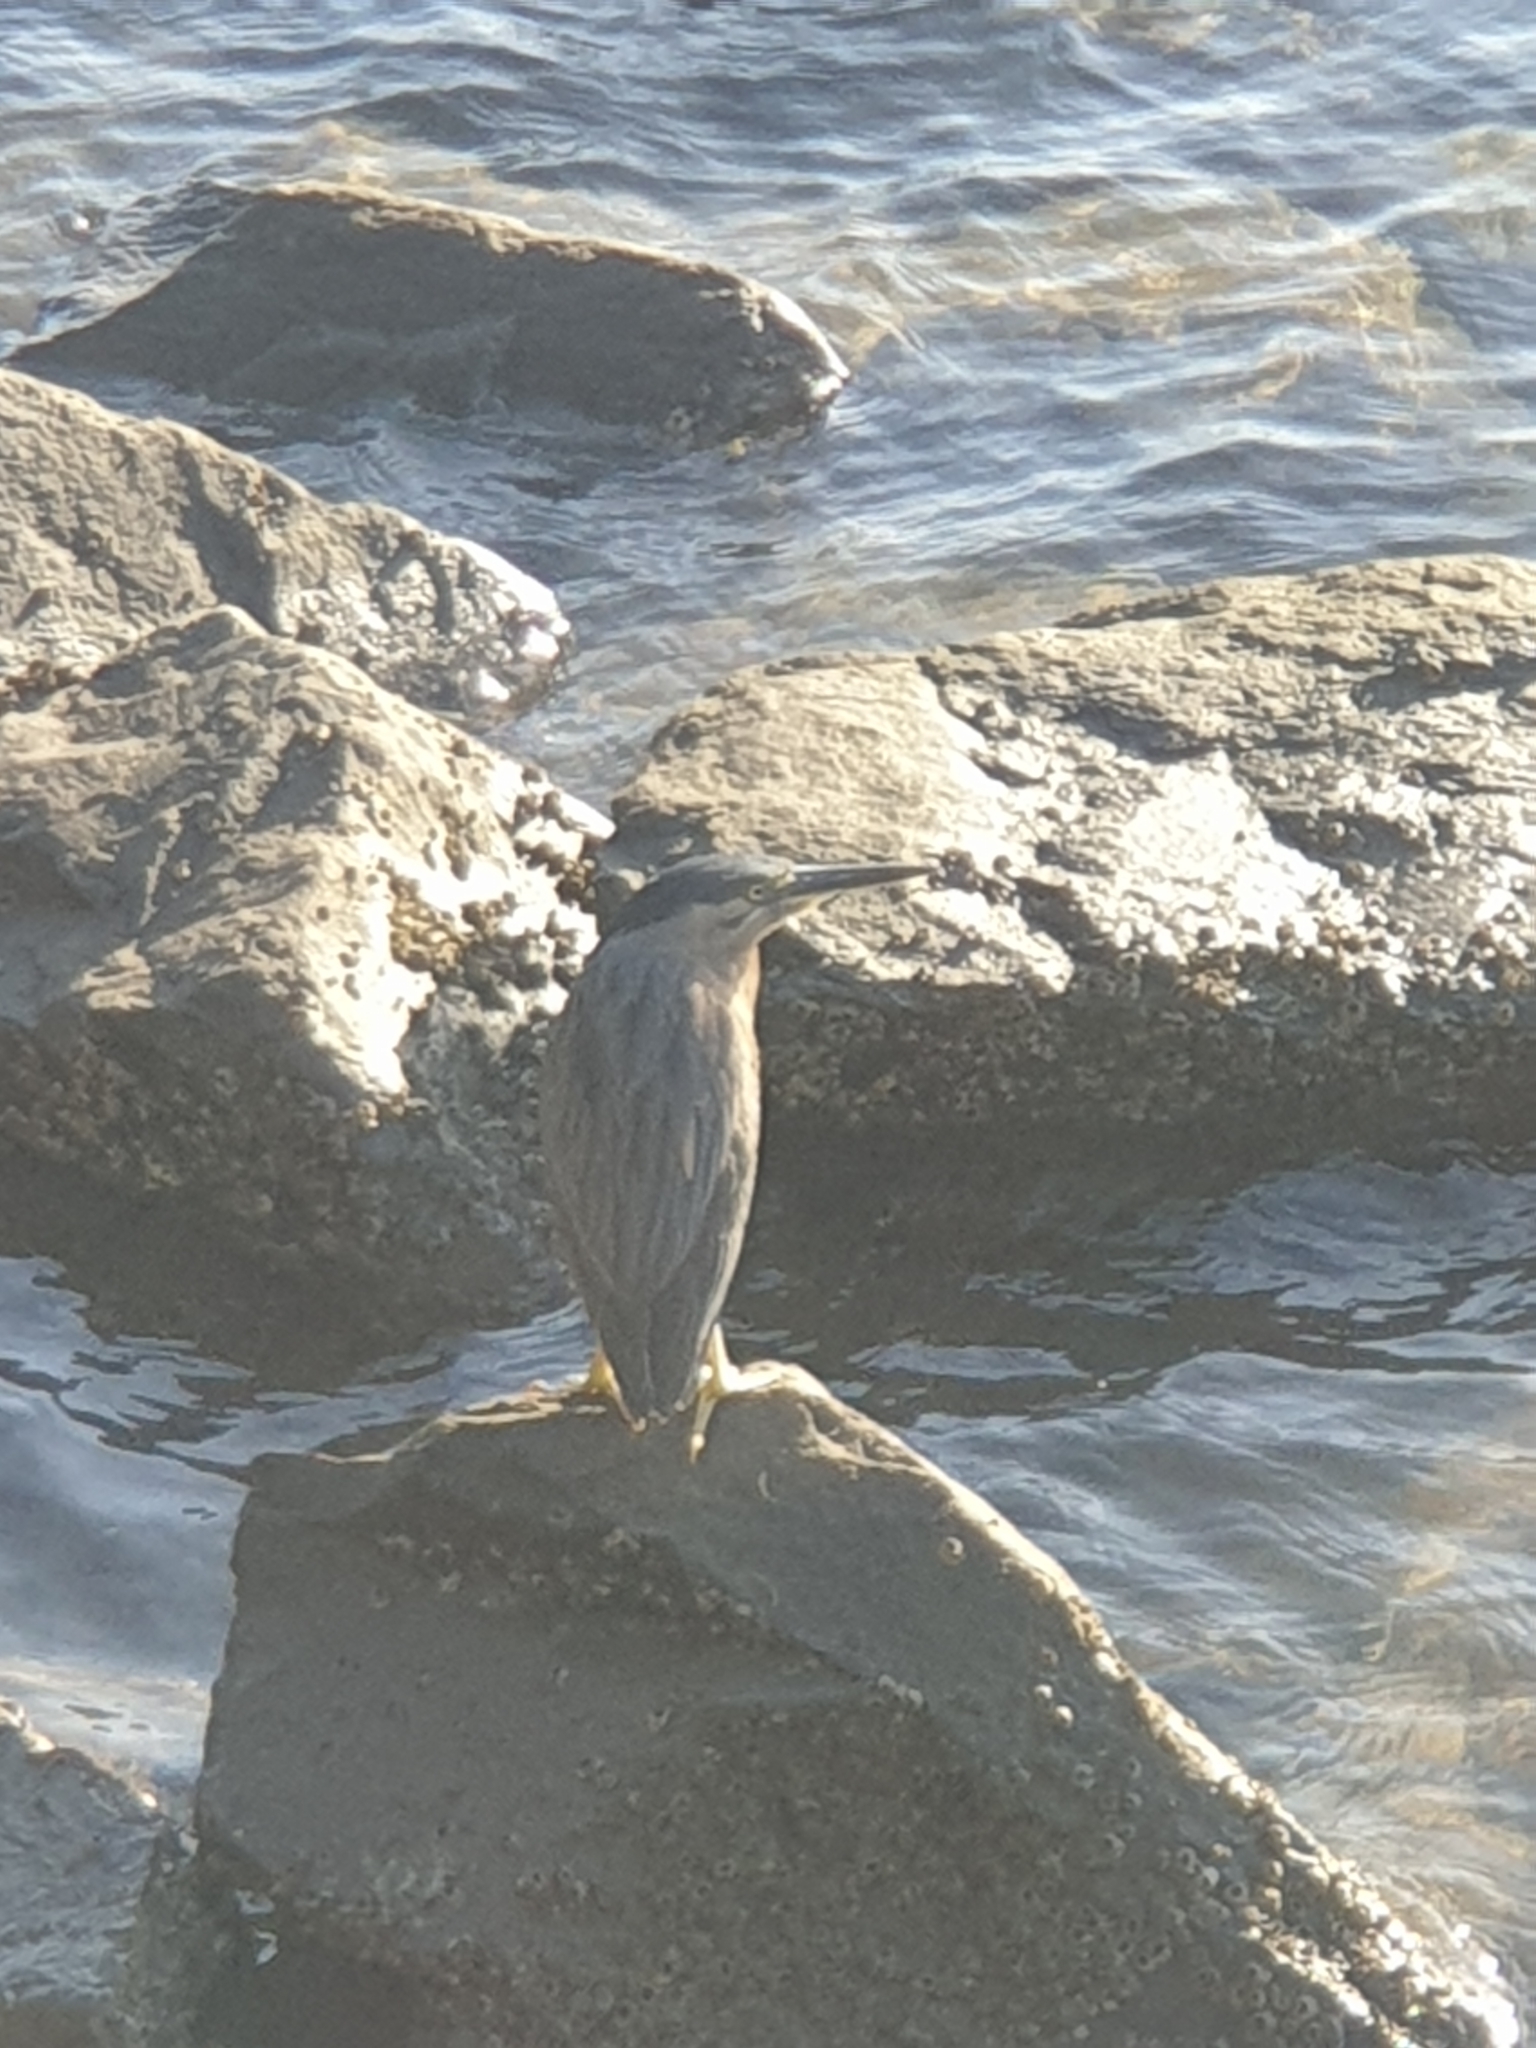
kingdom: Animalia
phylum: Chordata
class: Aves
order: Pelecaniformes
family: Ardeidae
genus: Butorides
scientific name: Butorides striata
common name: Striated heron
